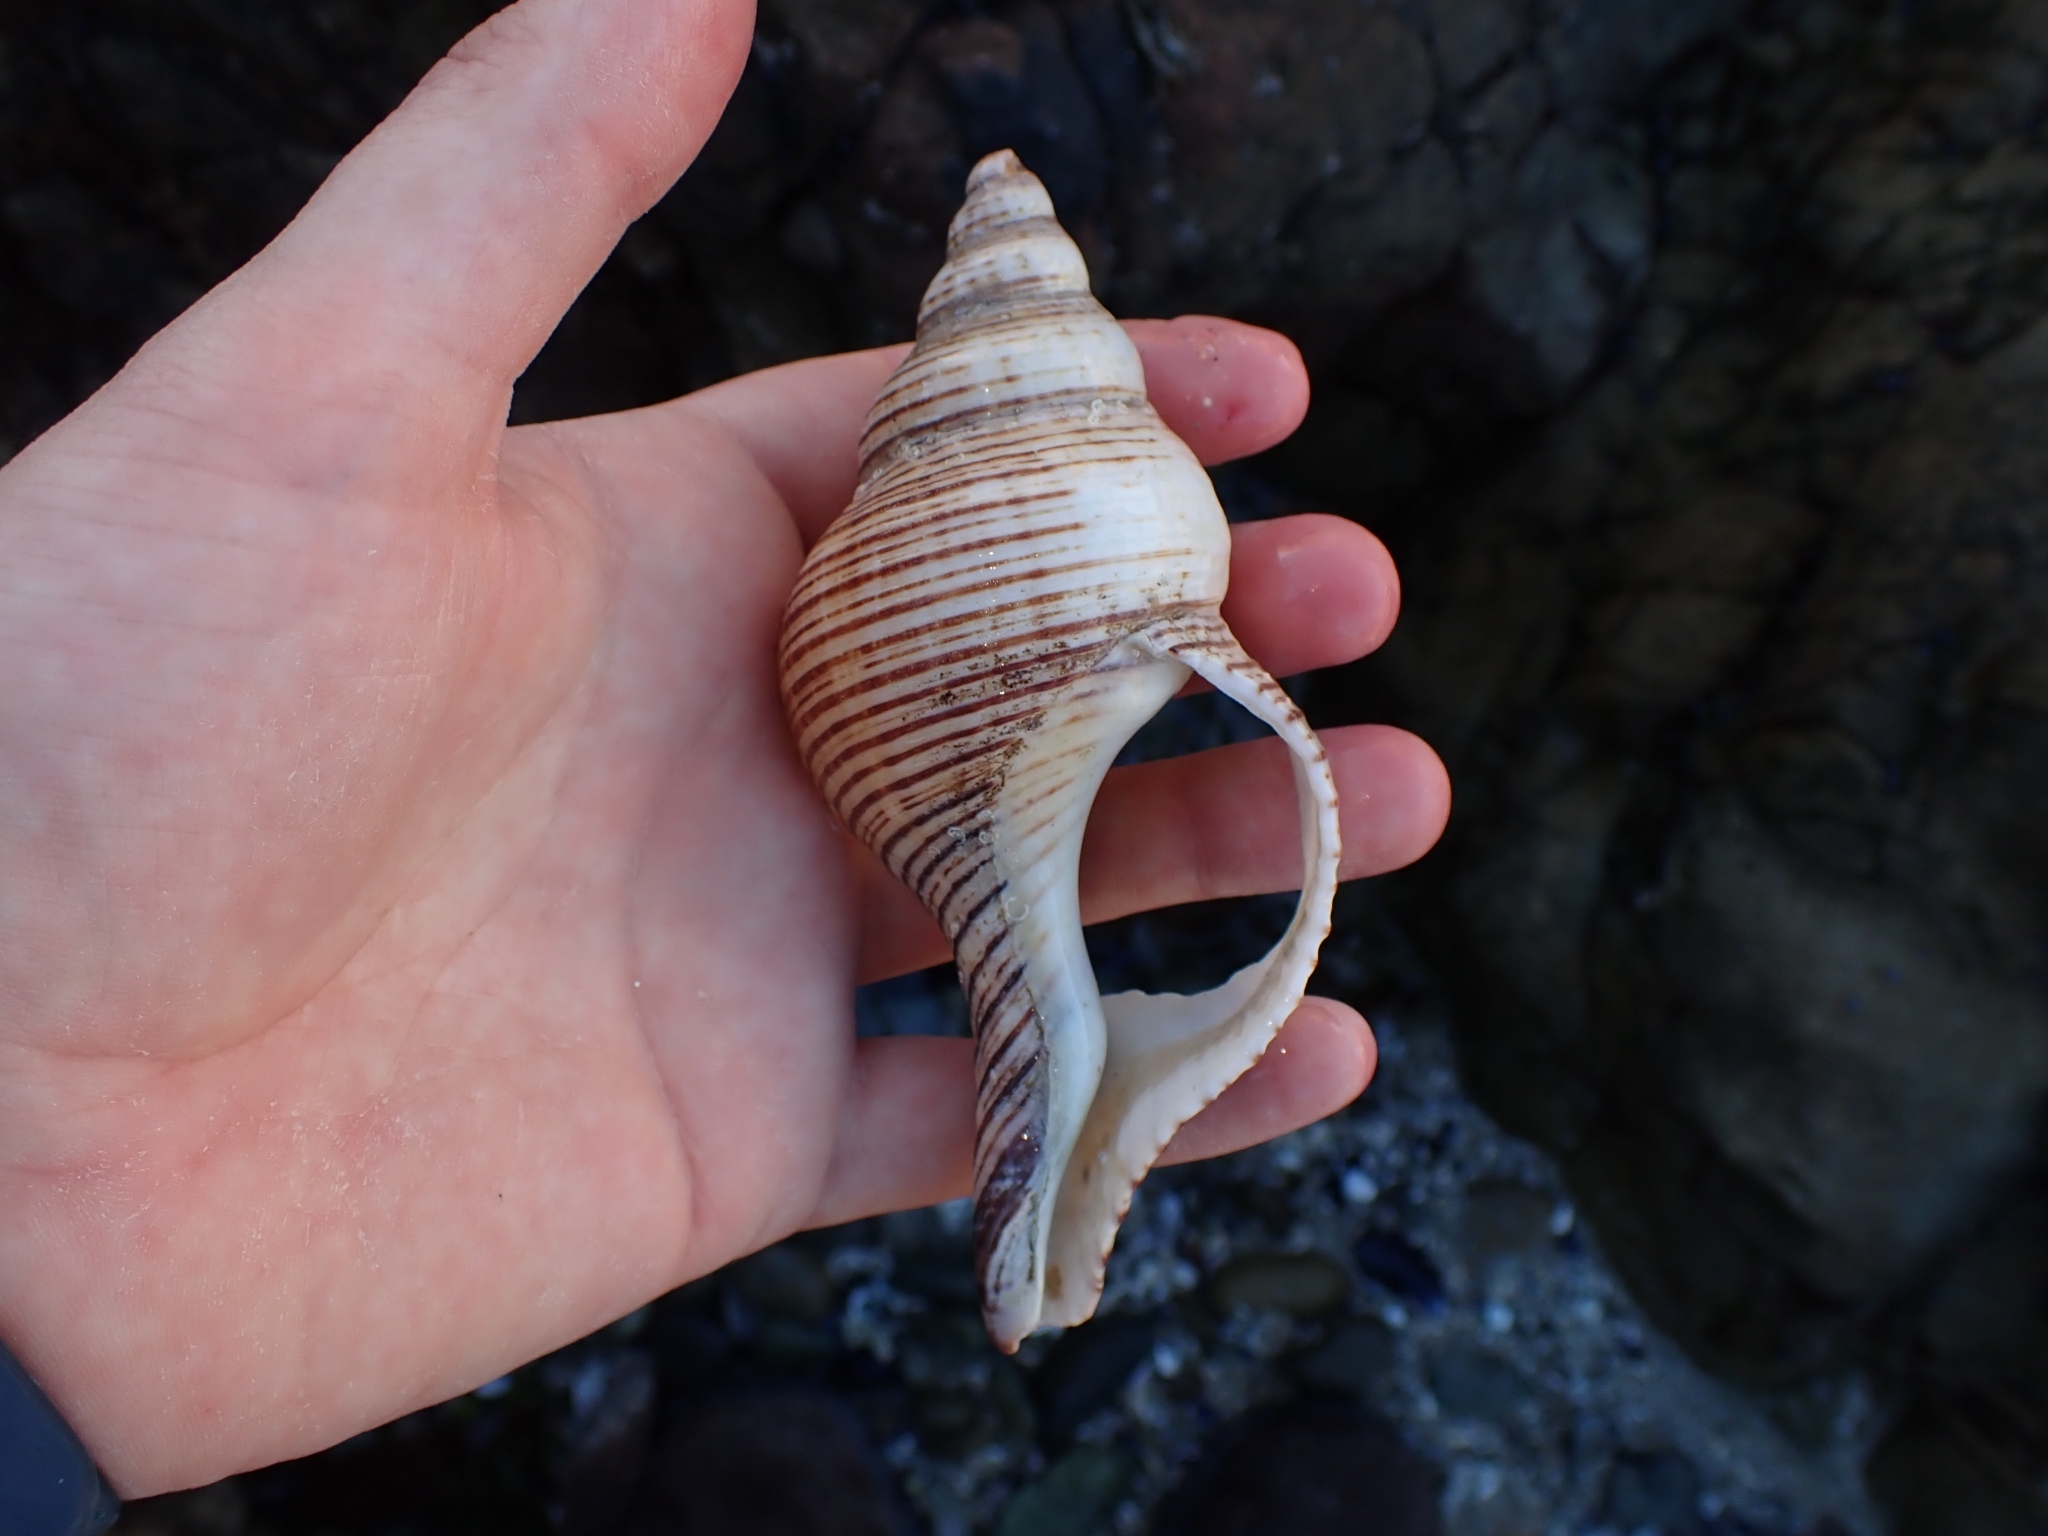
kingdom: Animalia
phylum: Mollusca
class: Gastropoda
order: Neogastropoda
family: Austrosiphonidae
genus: Penion
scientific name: Penion sulcatus
